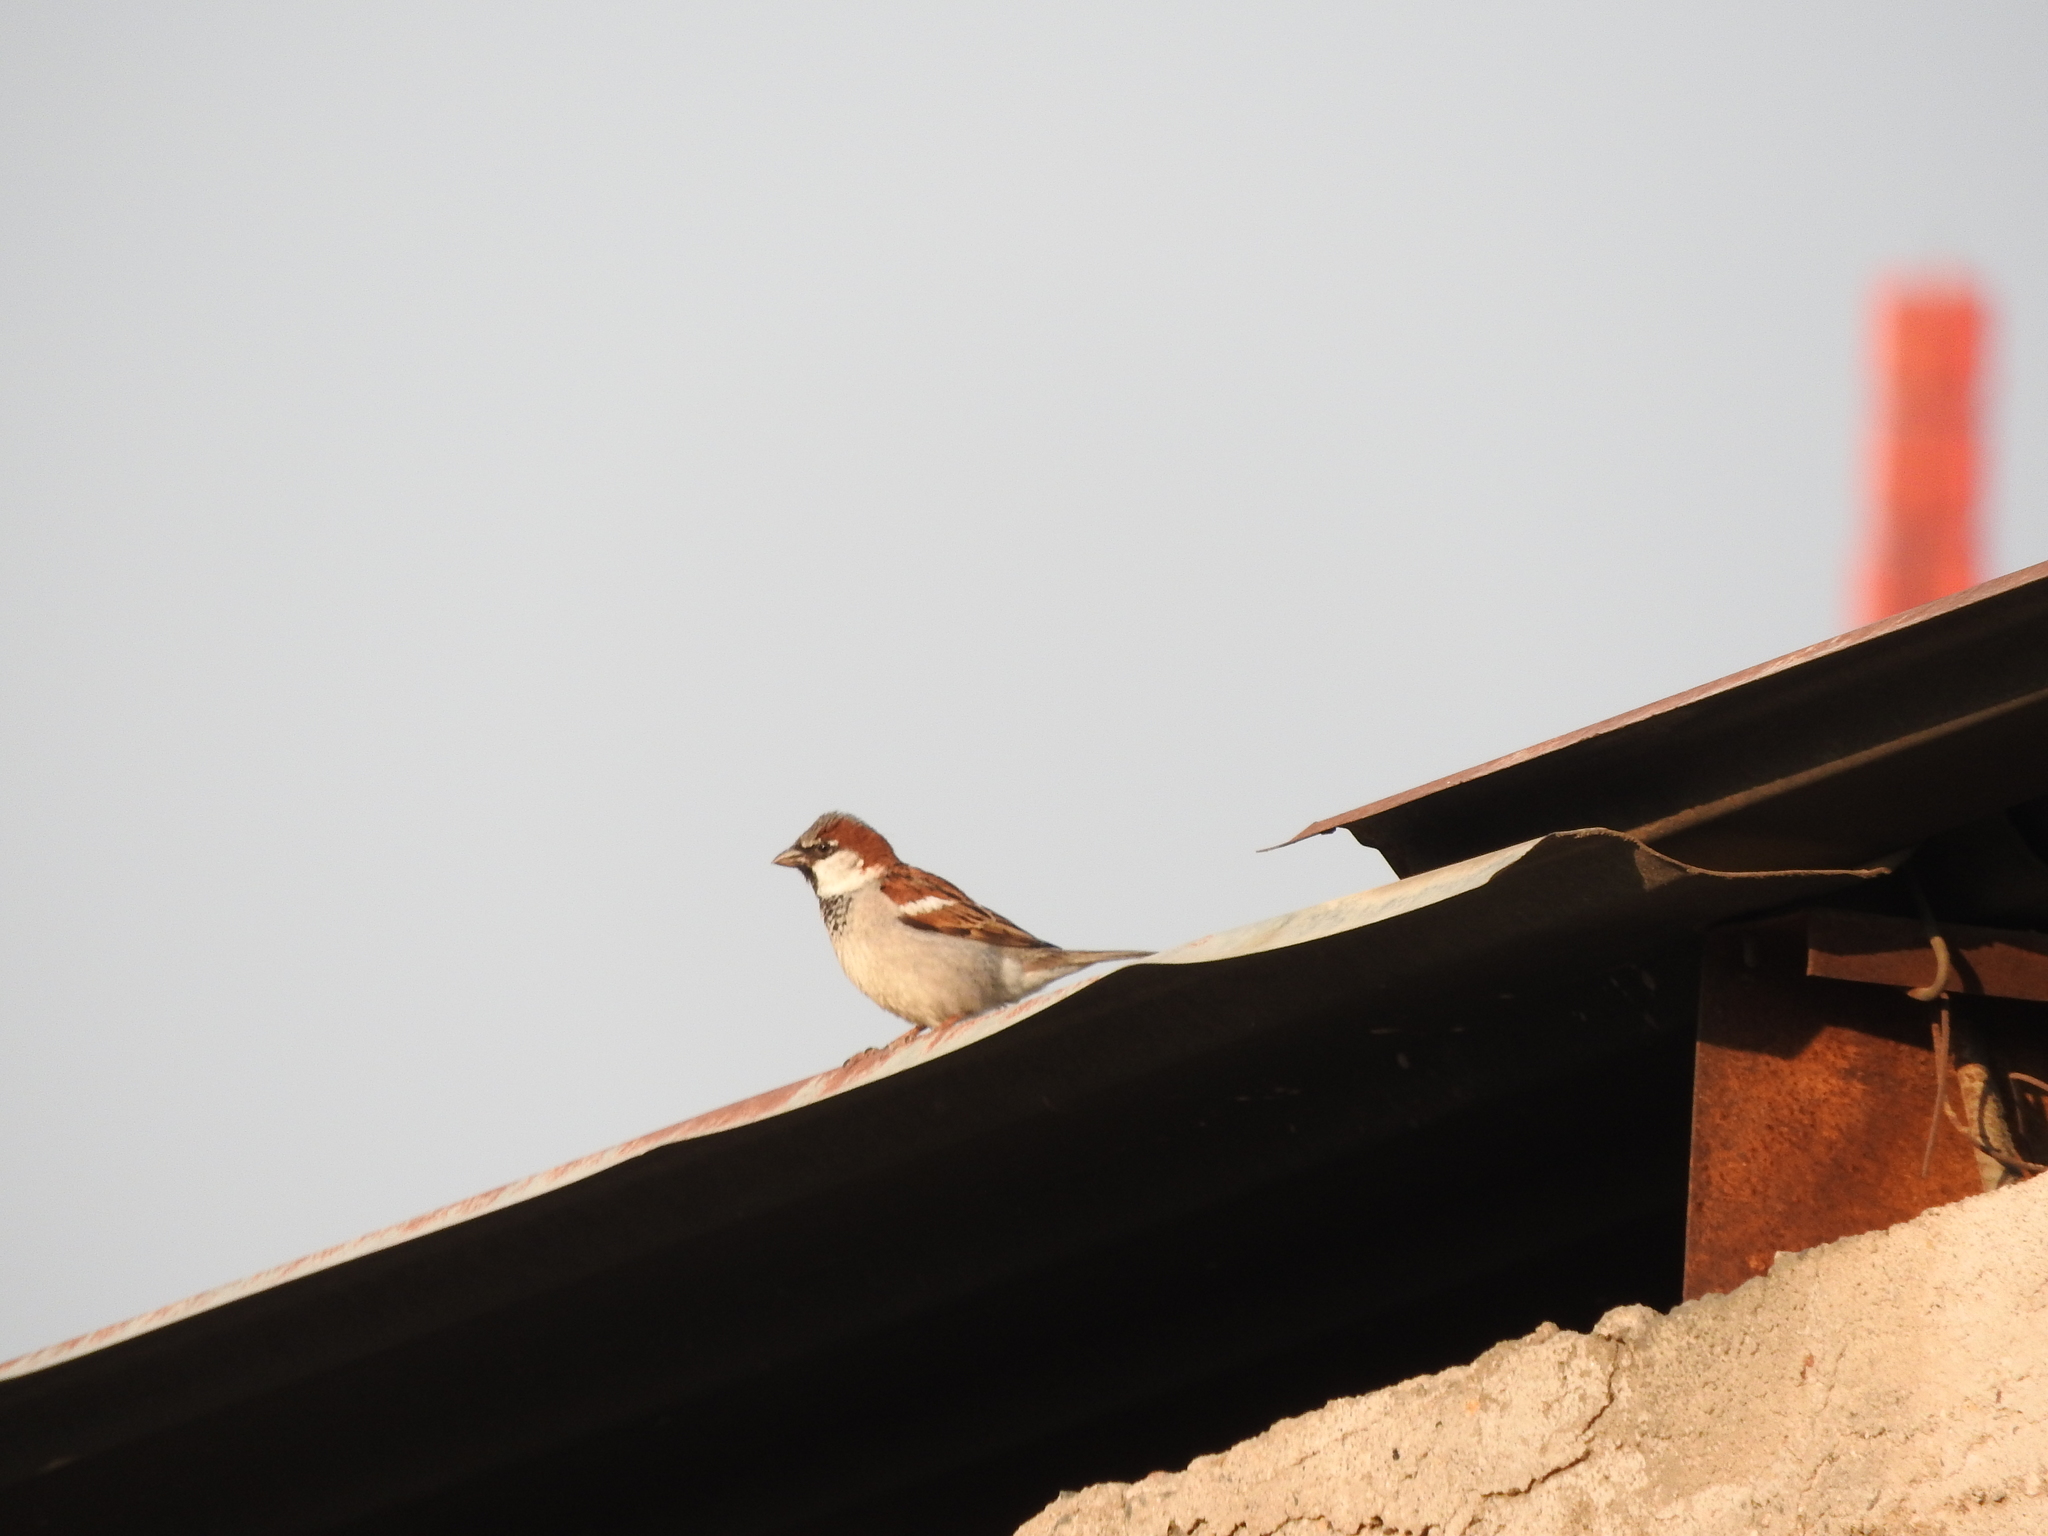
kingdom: Animalia
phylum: Chordata
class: Aves
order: Passeriformes
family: Passeridae
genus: Passer
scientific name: Passer domesticus
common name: House sparrow
